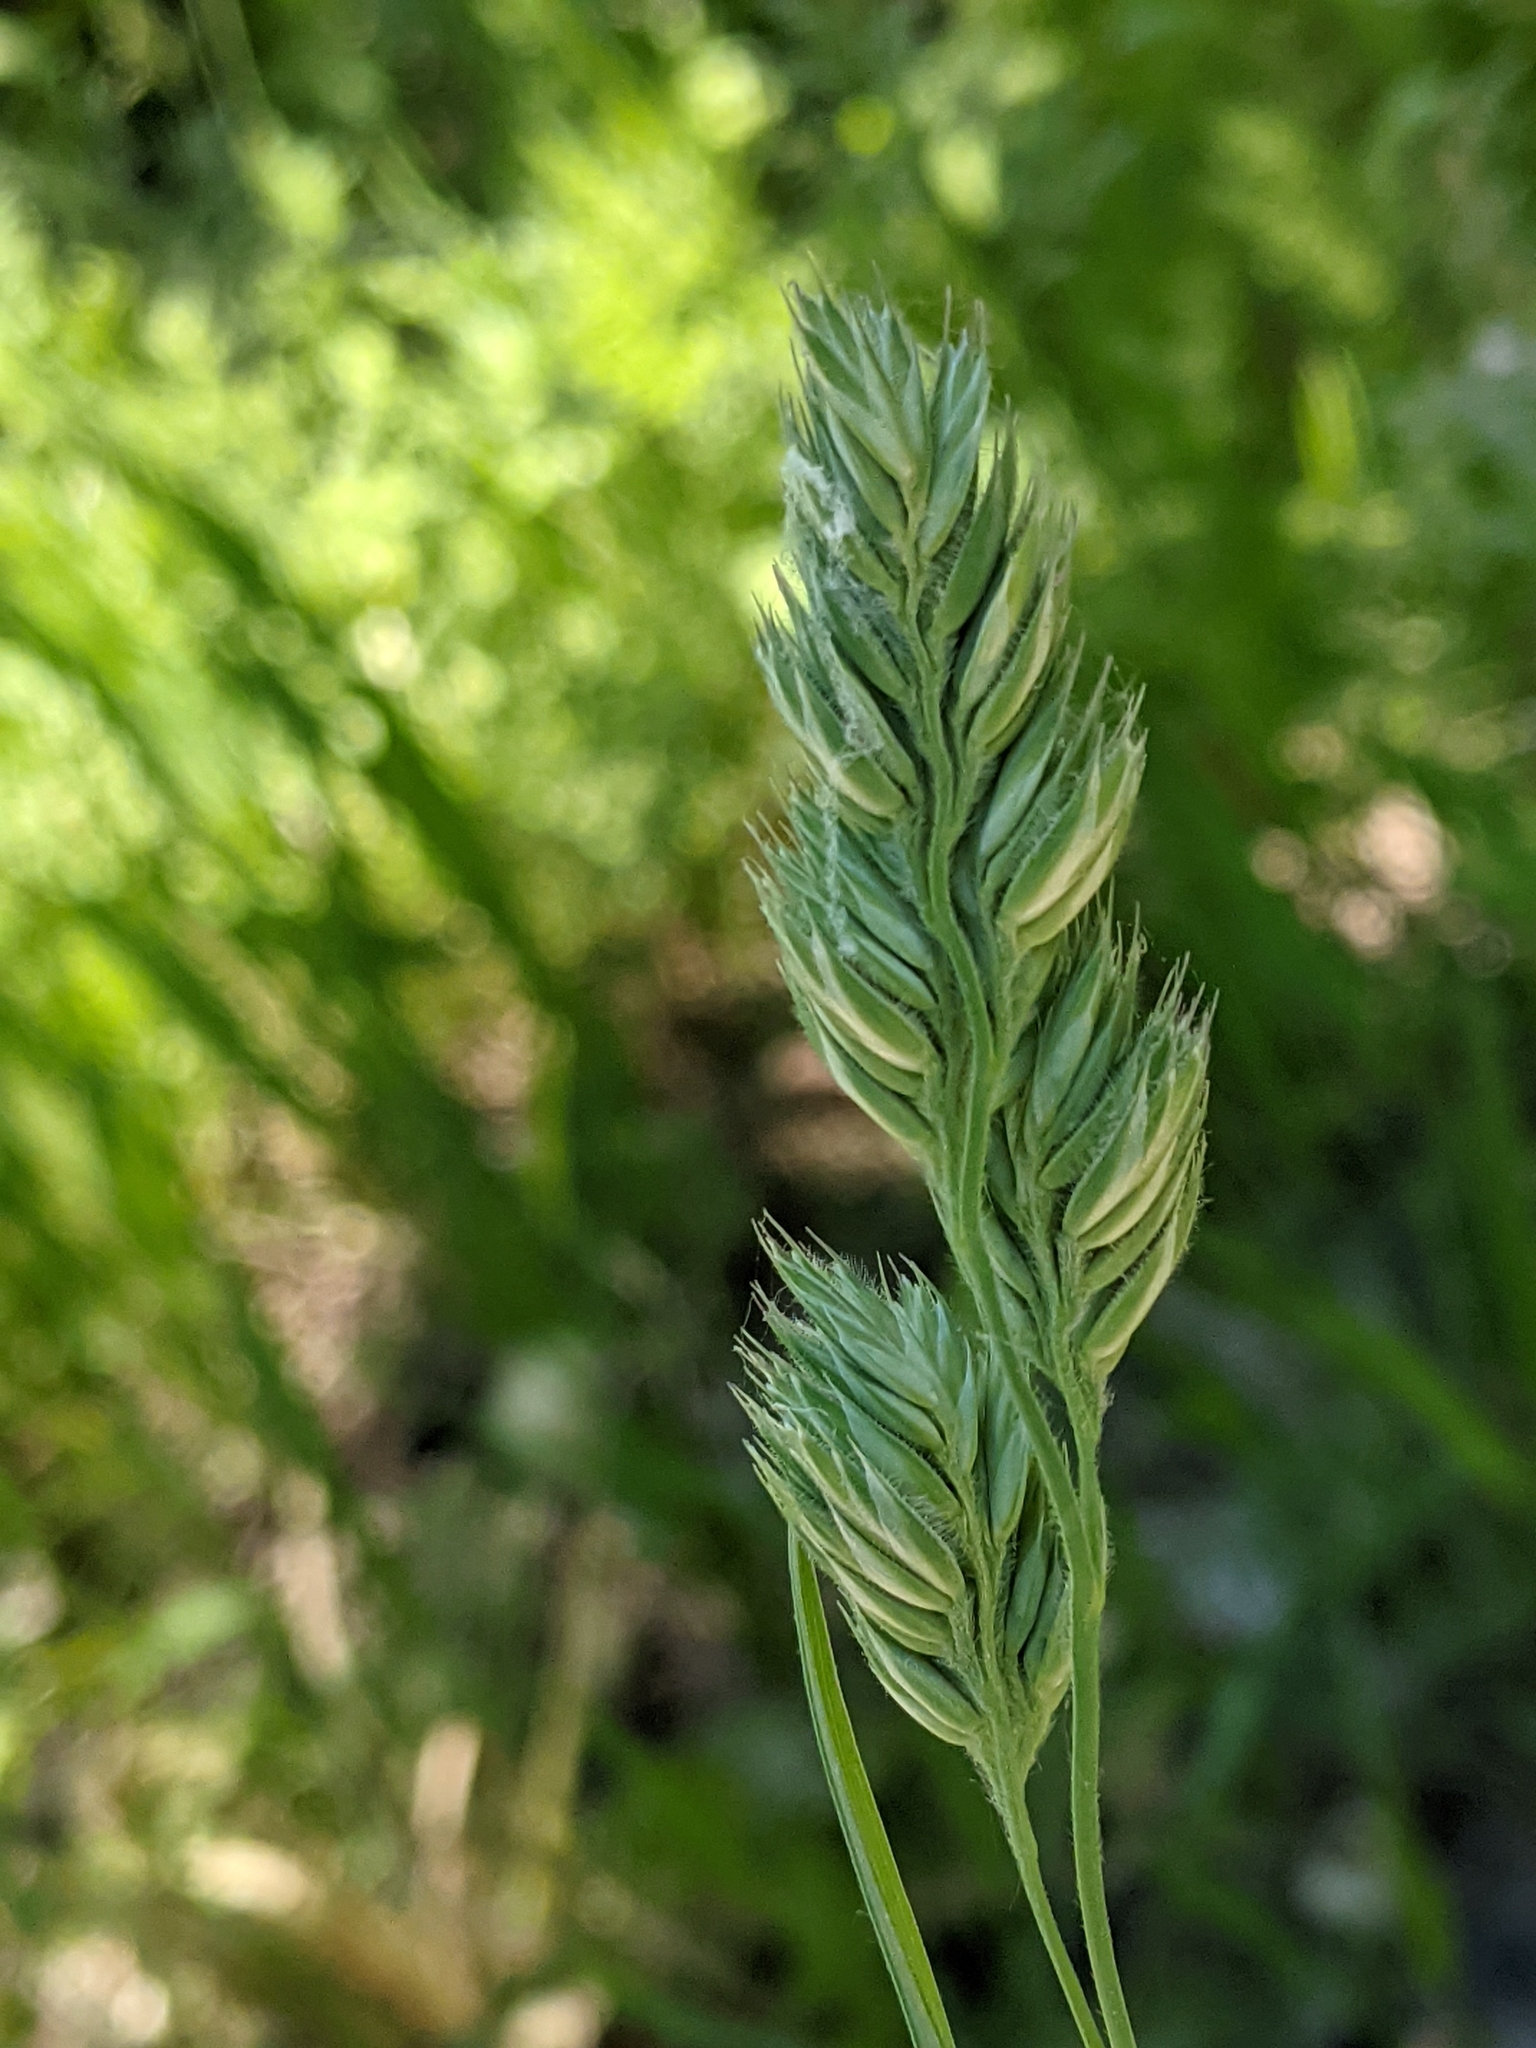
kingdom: Plantae
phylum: Tracheophyta
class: Liliopsida
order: Poales
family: Poaceae
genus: Dactylis
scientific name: Dactylis glomerata
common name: Orchardgrass
